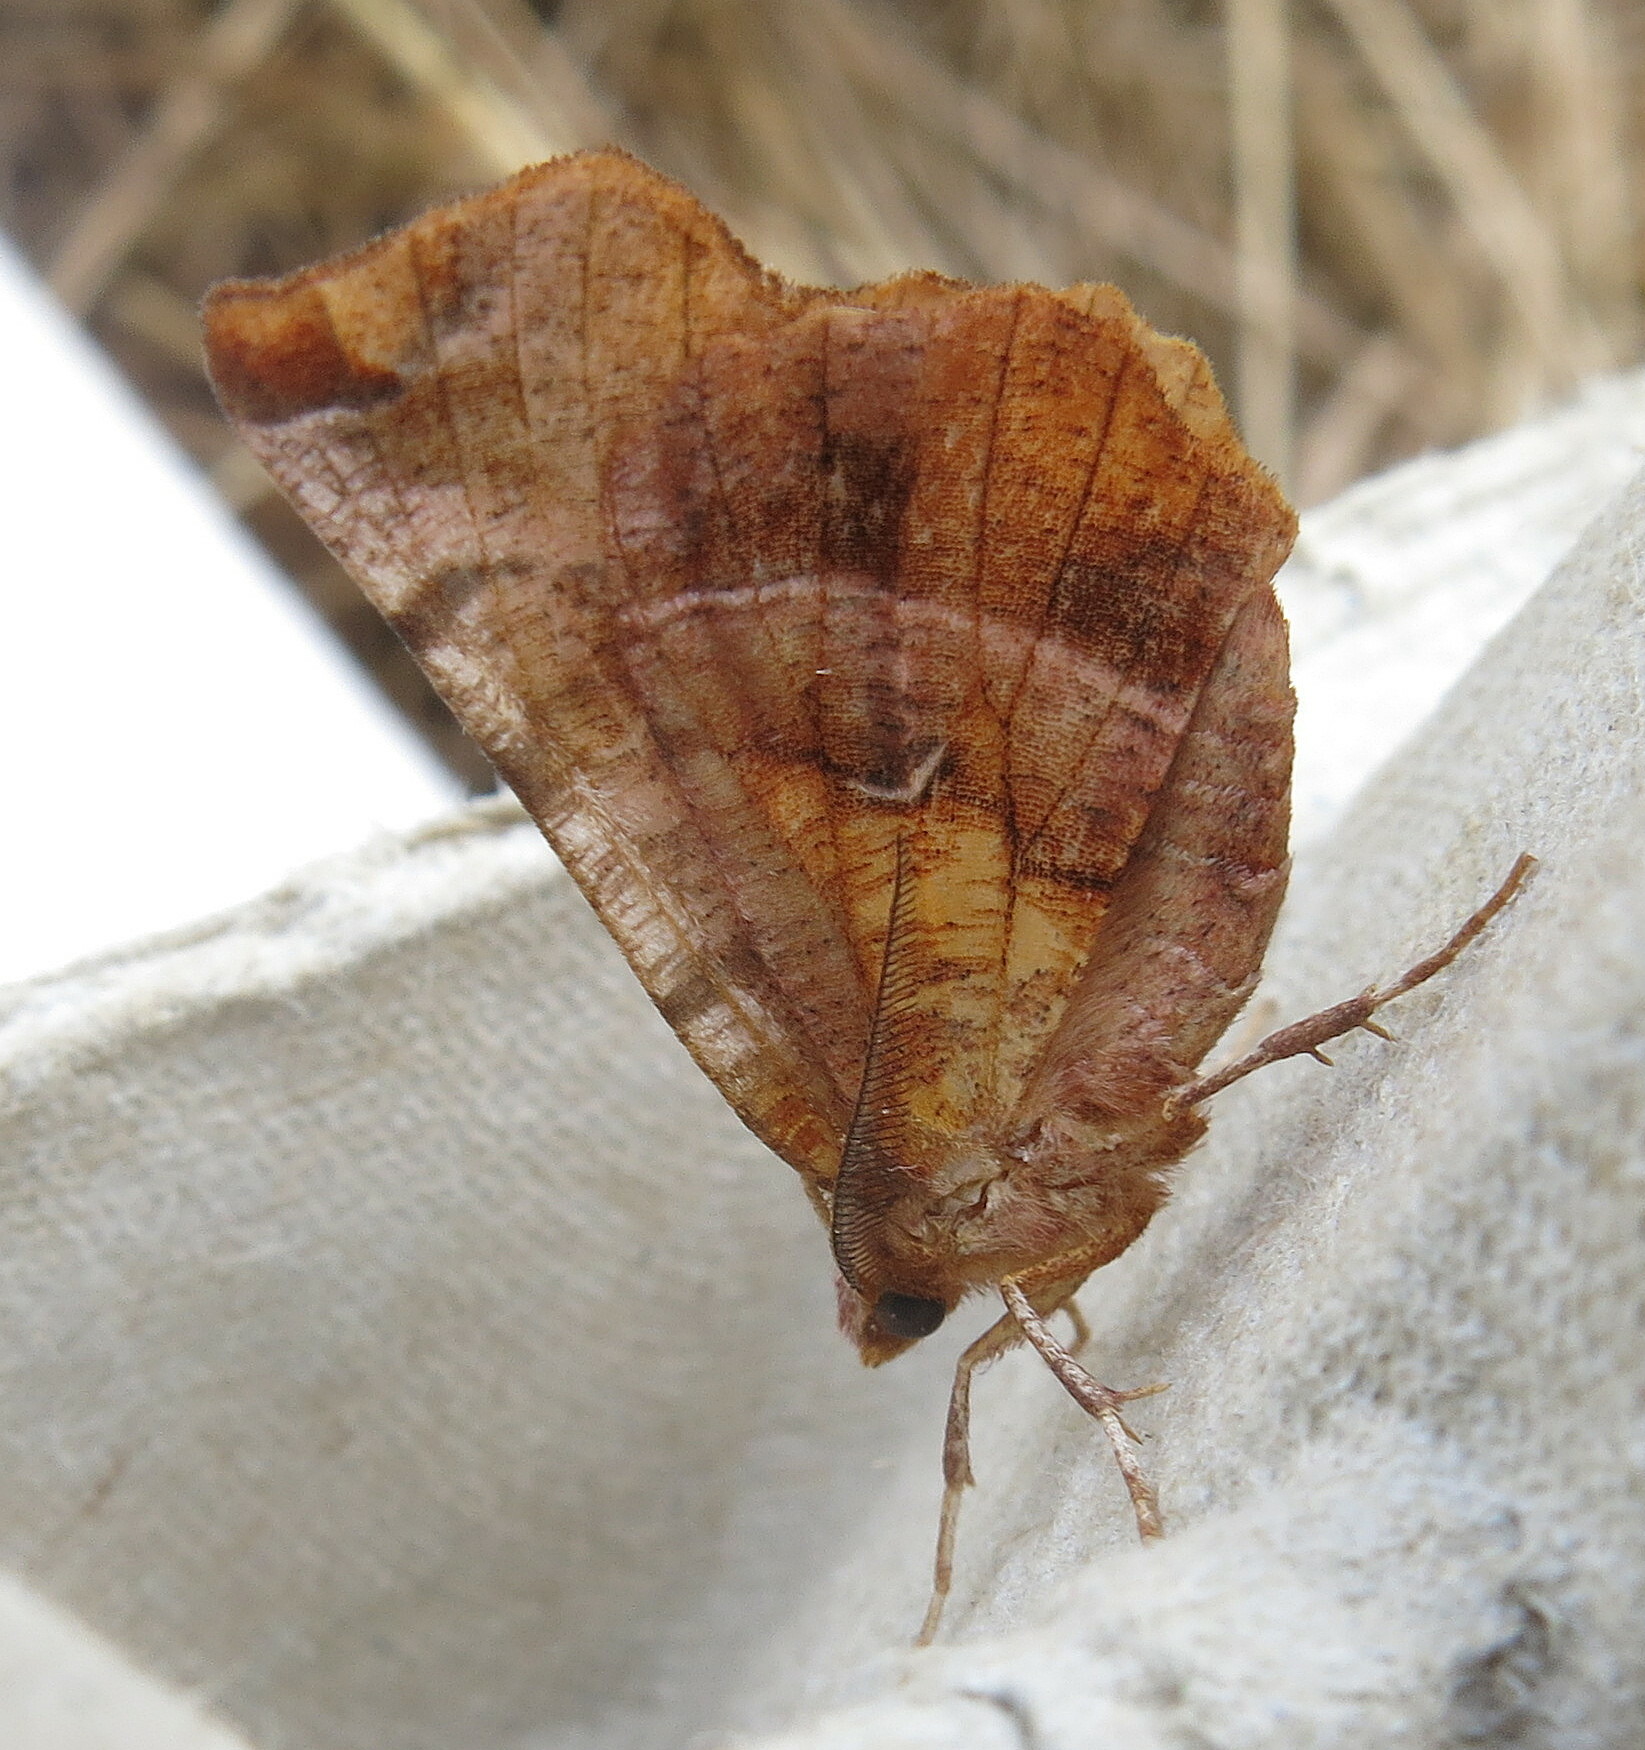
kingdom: Animalia
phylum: Arthropoda
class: Insecta
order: Lepidoptera
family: Geometridae
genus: Selenia
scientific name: Selenia dentaria
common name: Early thorn
